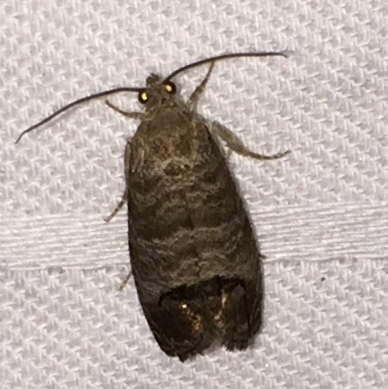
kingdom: Animalia
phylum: Arthropoda
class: Insecta
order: Lepidoptera
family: Tortricidae
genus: Cydia
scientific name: Cydia pomonella
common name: Codling moth
